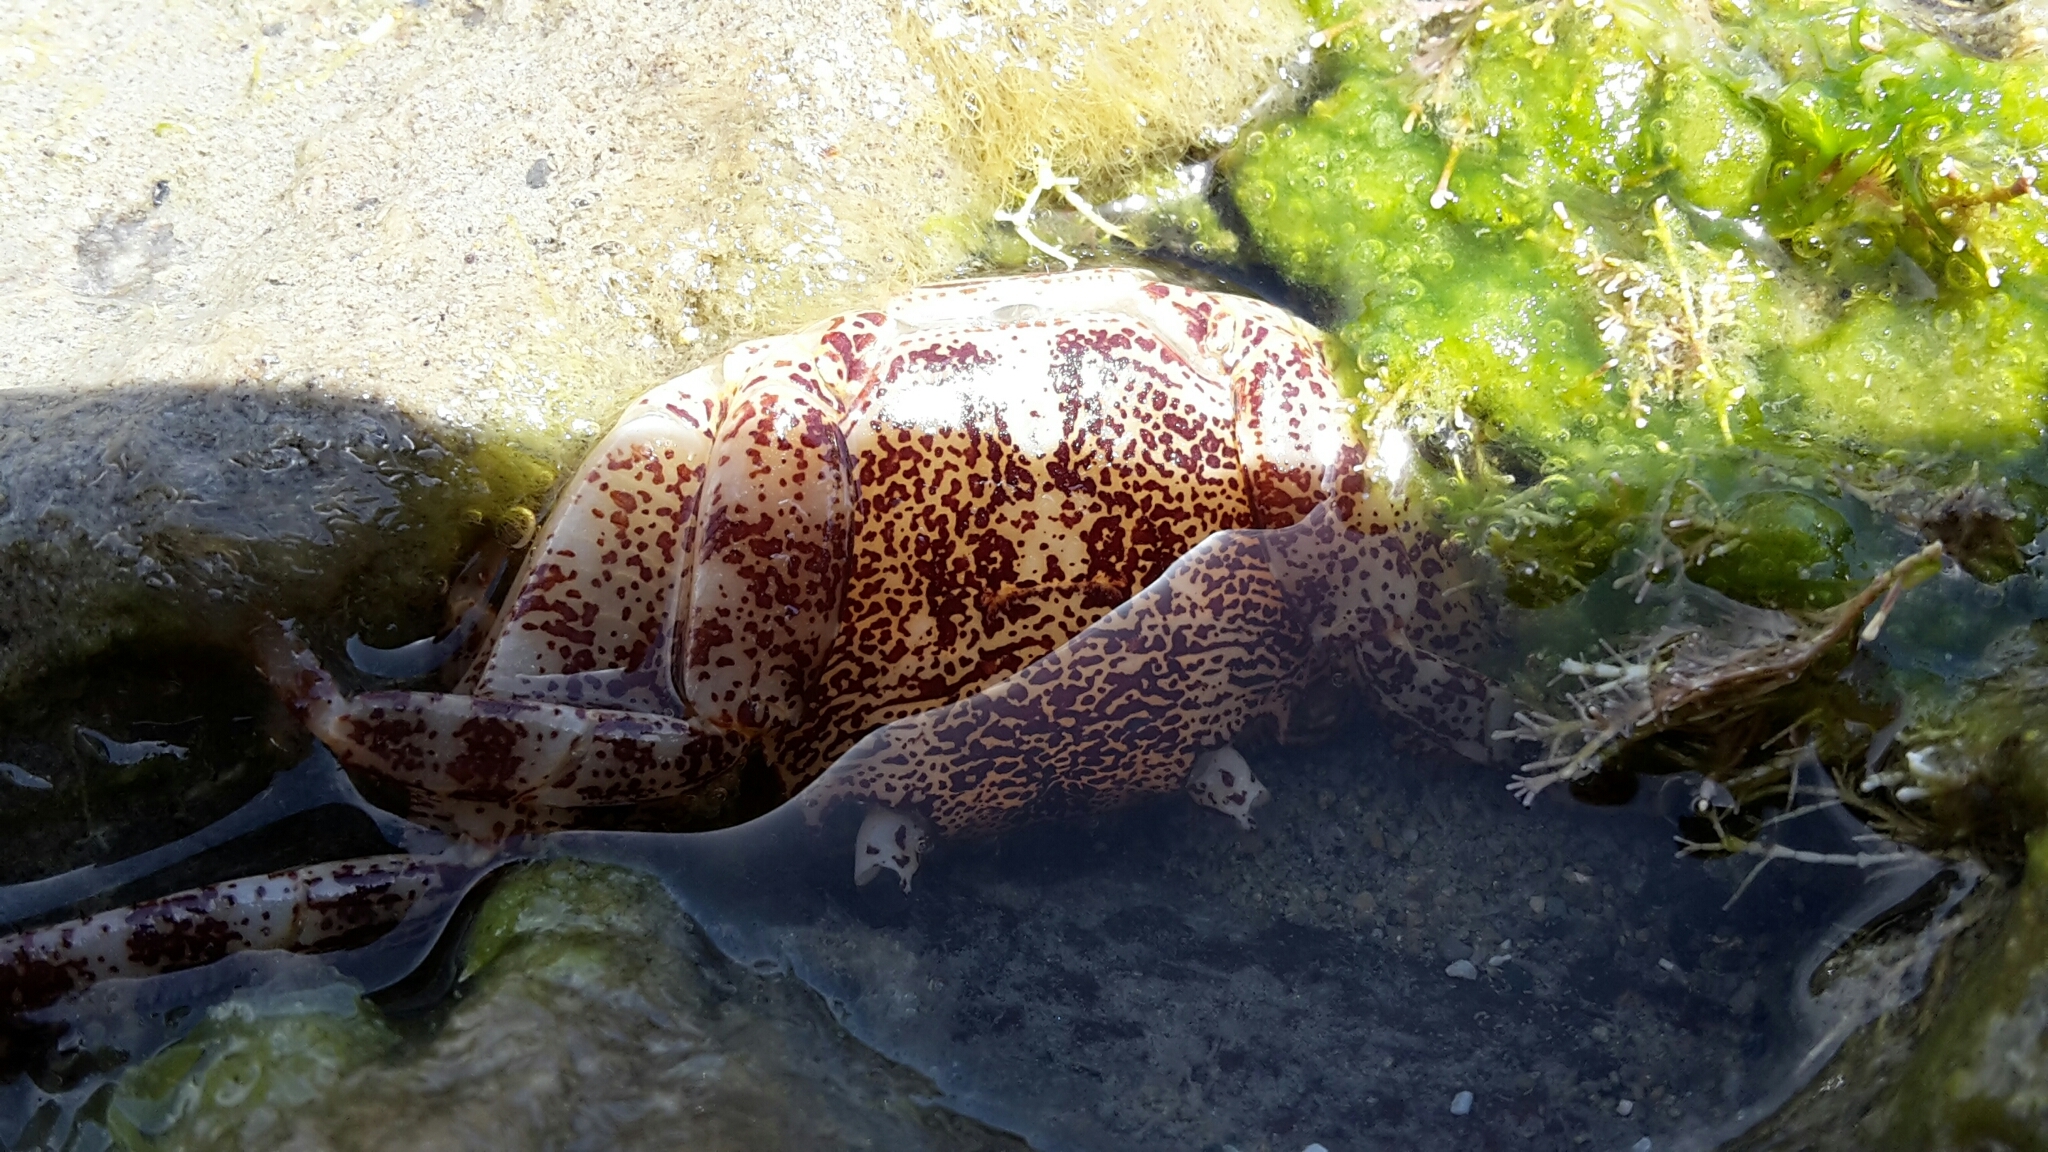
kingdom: Animalia
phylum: Arthropoda
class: Malacostraca
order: Decapoda
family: Grapsidae
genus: Leptograpsus
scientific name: Leptograpsus variegatus
